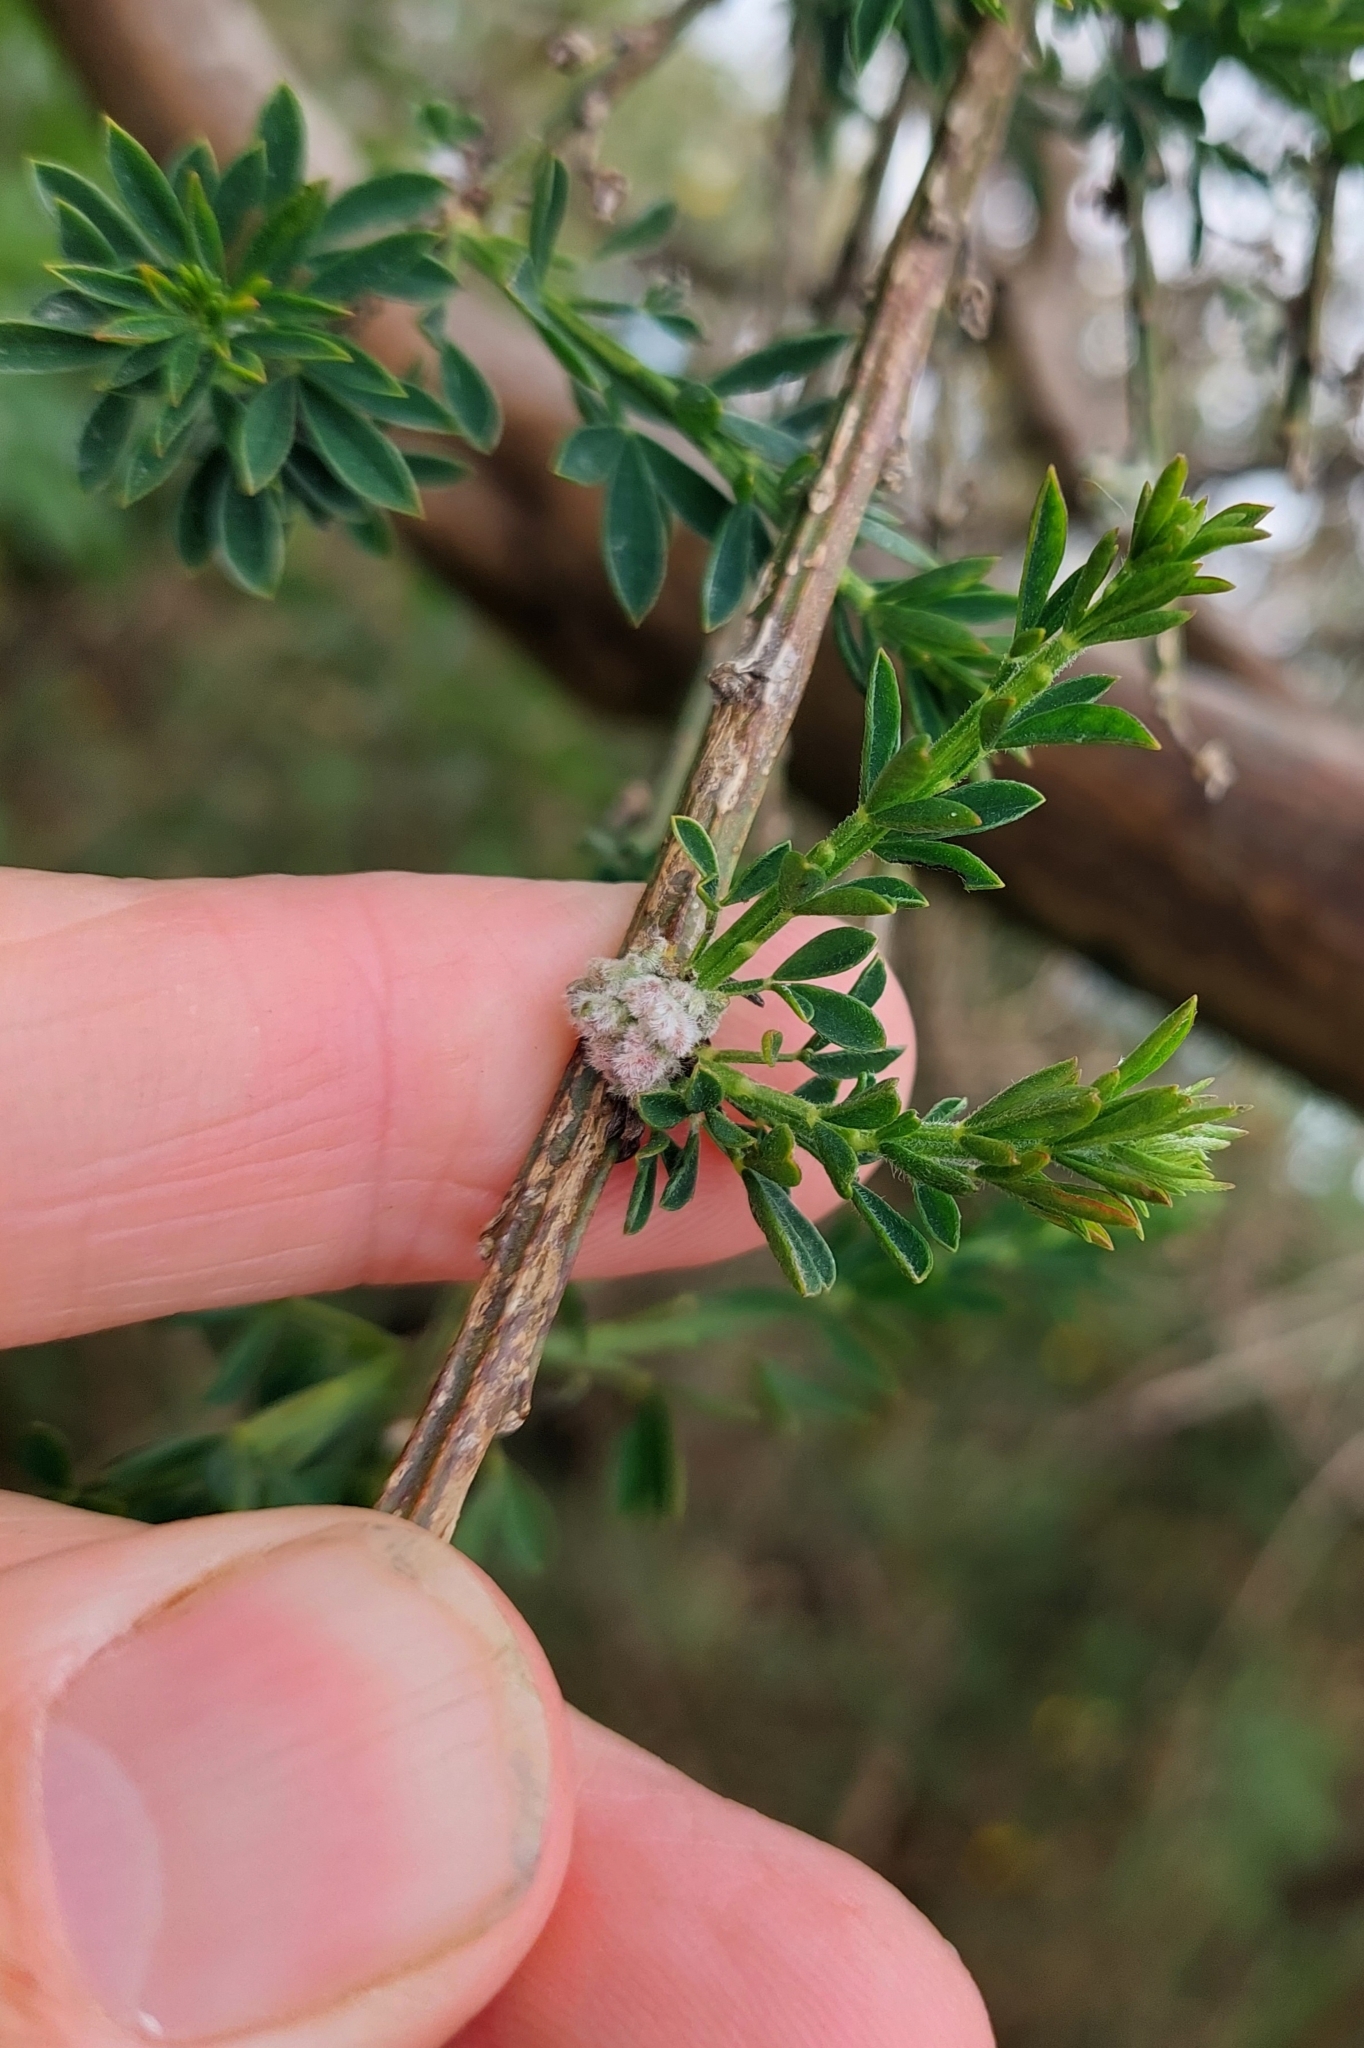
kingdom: Animalia
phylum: Arthropoda
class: Arachnida
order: Trombidiformes
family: Eriophyidae
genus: Aceria
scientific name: Aceria genistae
